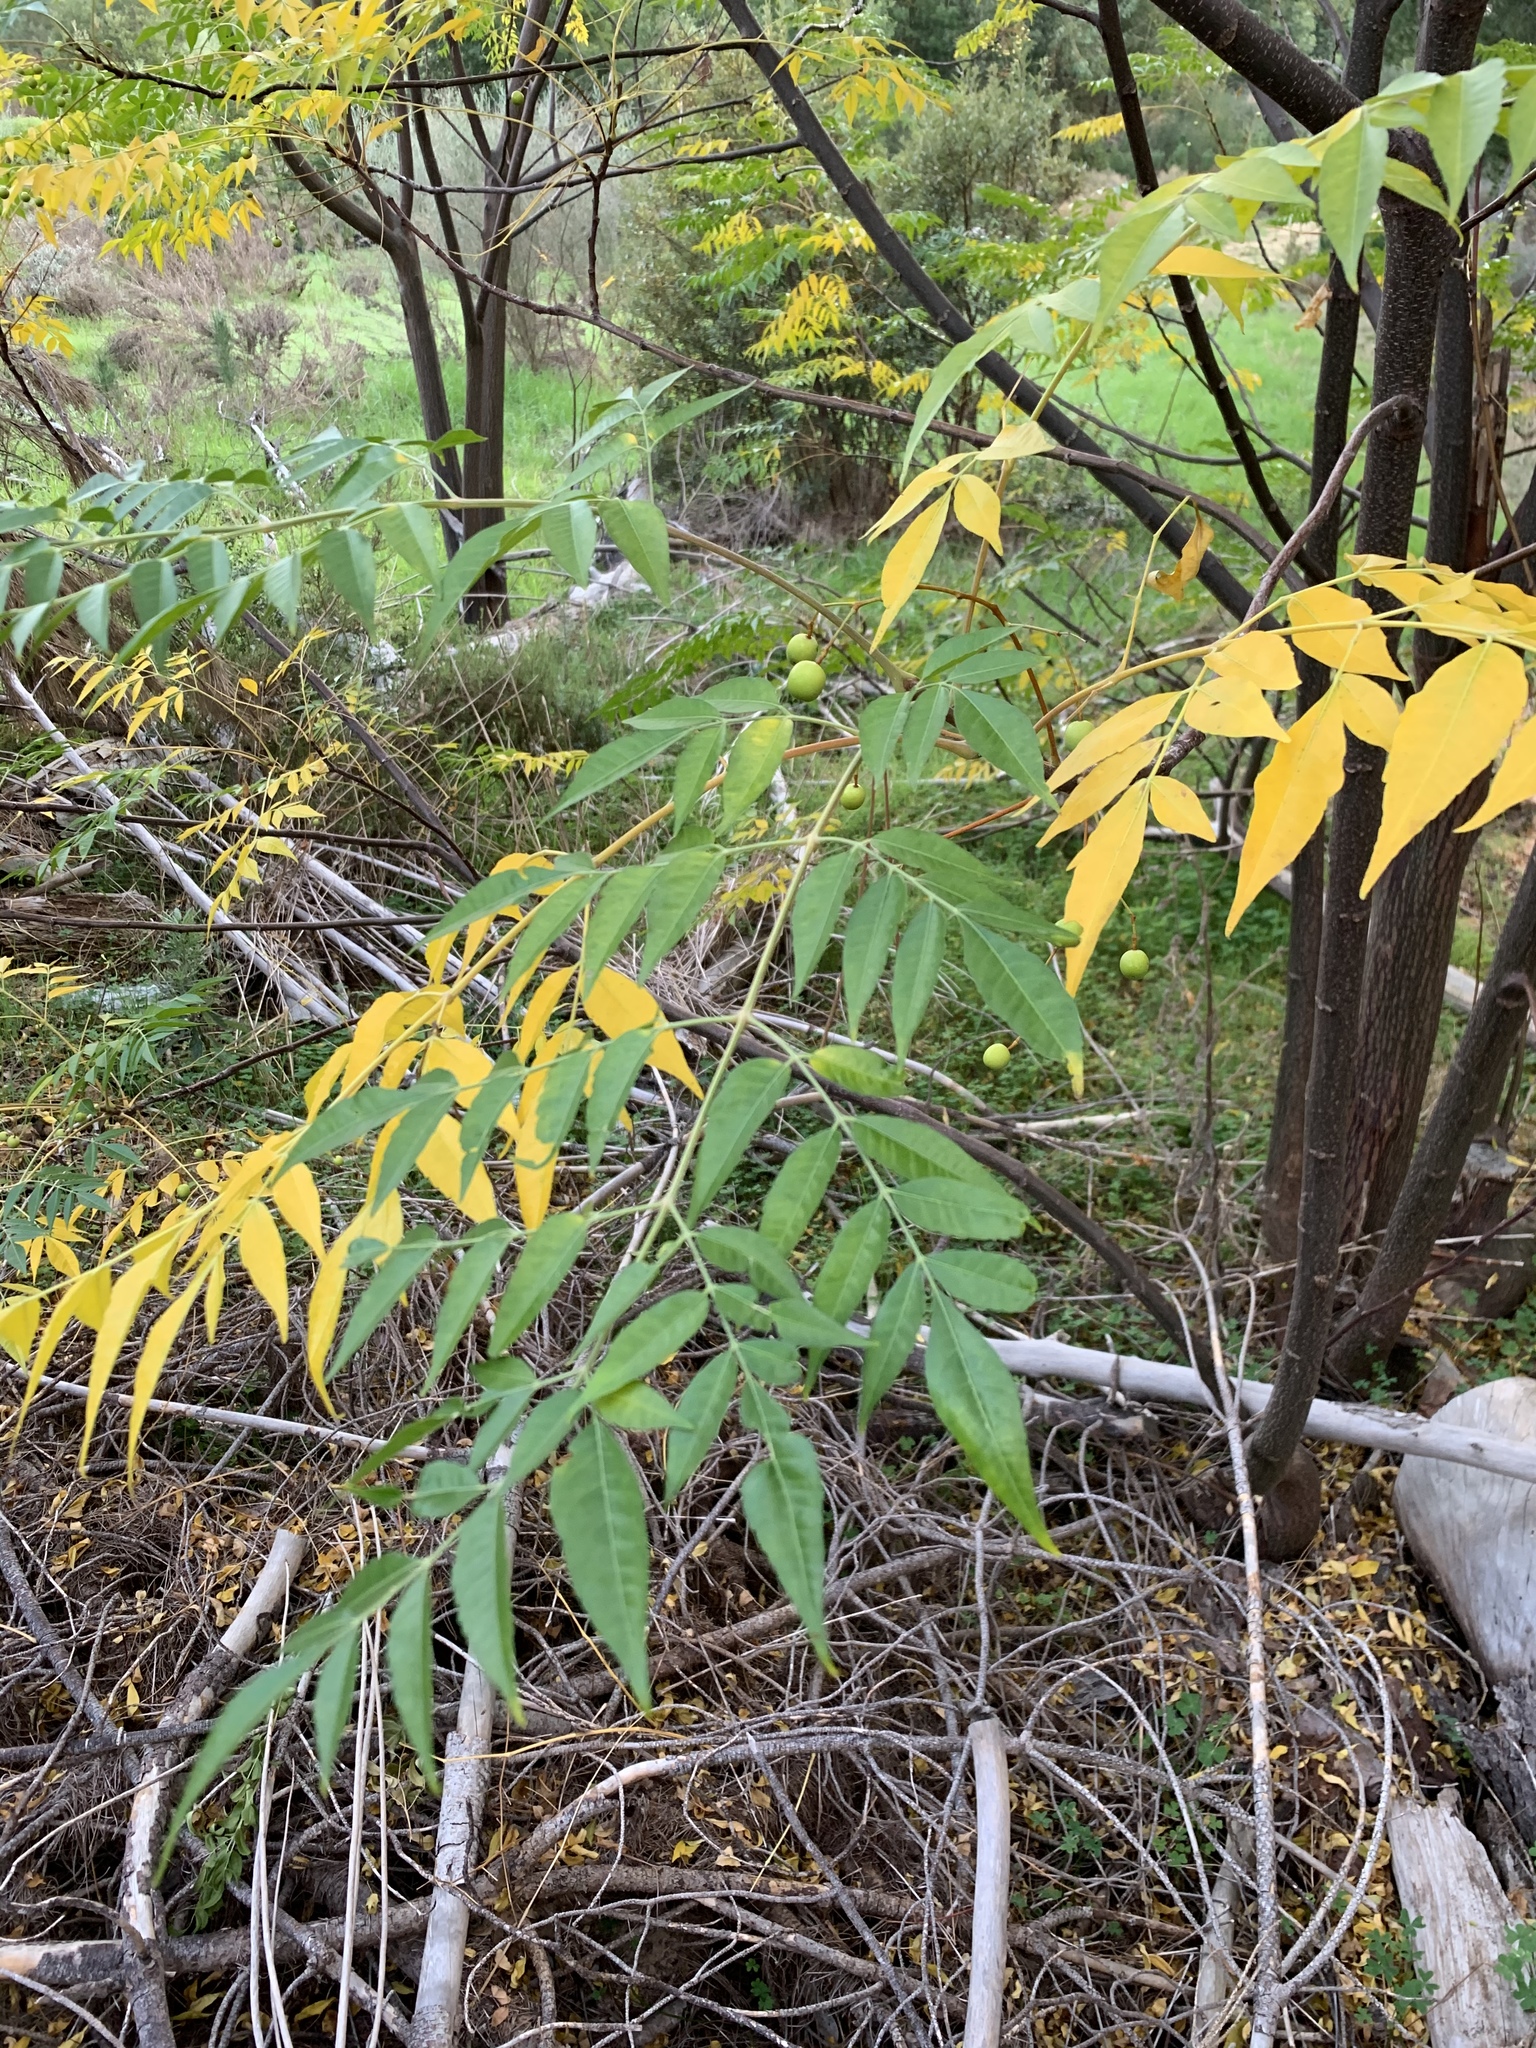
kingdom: Plantae
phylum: Tracheophyta
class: Magnoliopsida
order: Sapindales
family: Meliaceae
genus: Melia
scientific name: Melia azedarach
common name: Chinaberrytree
